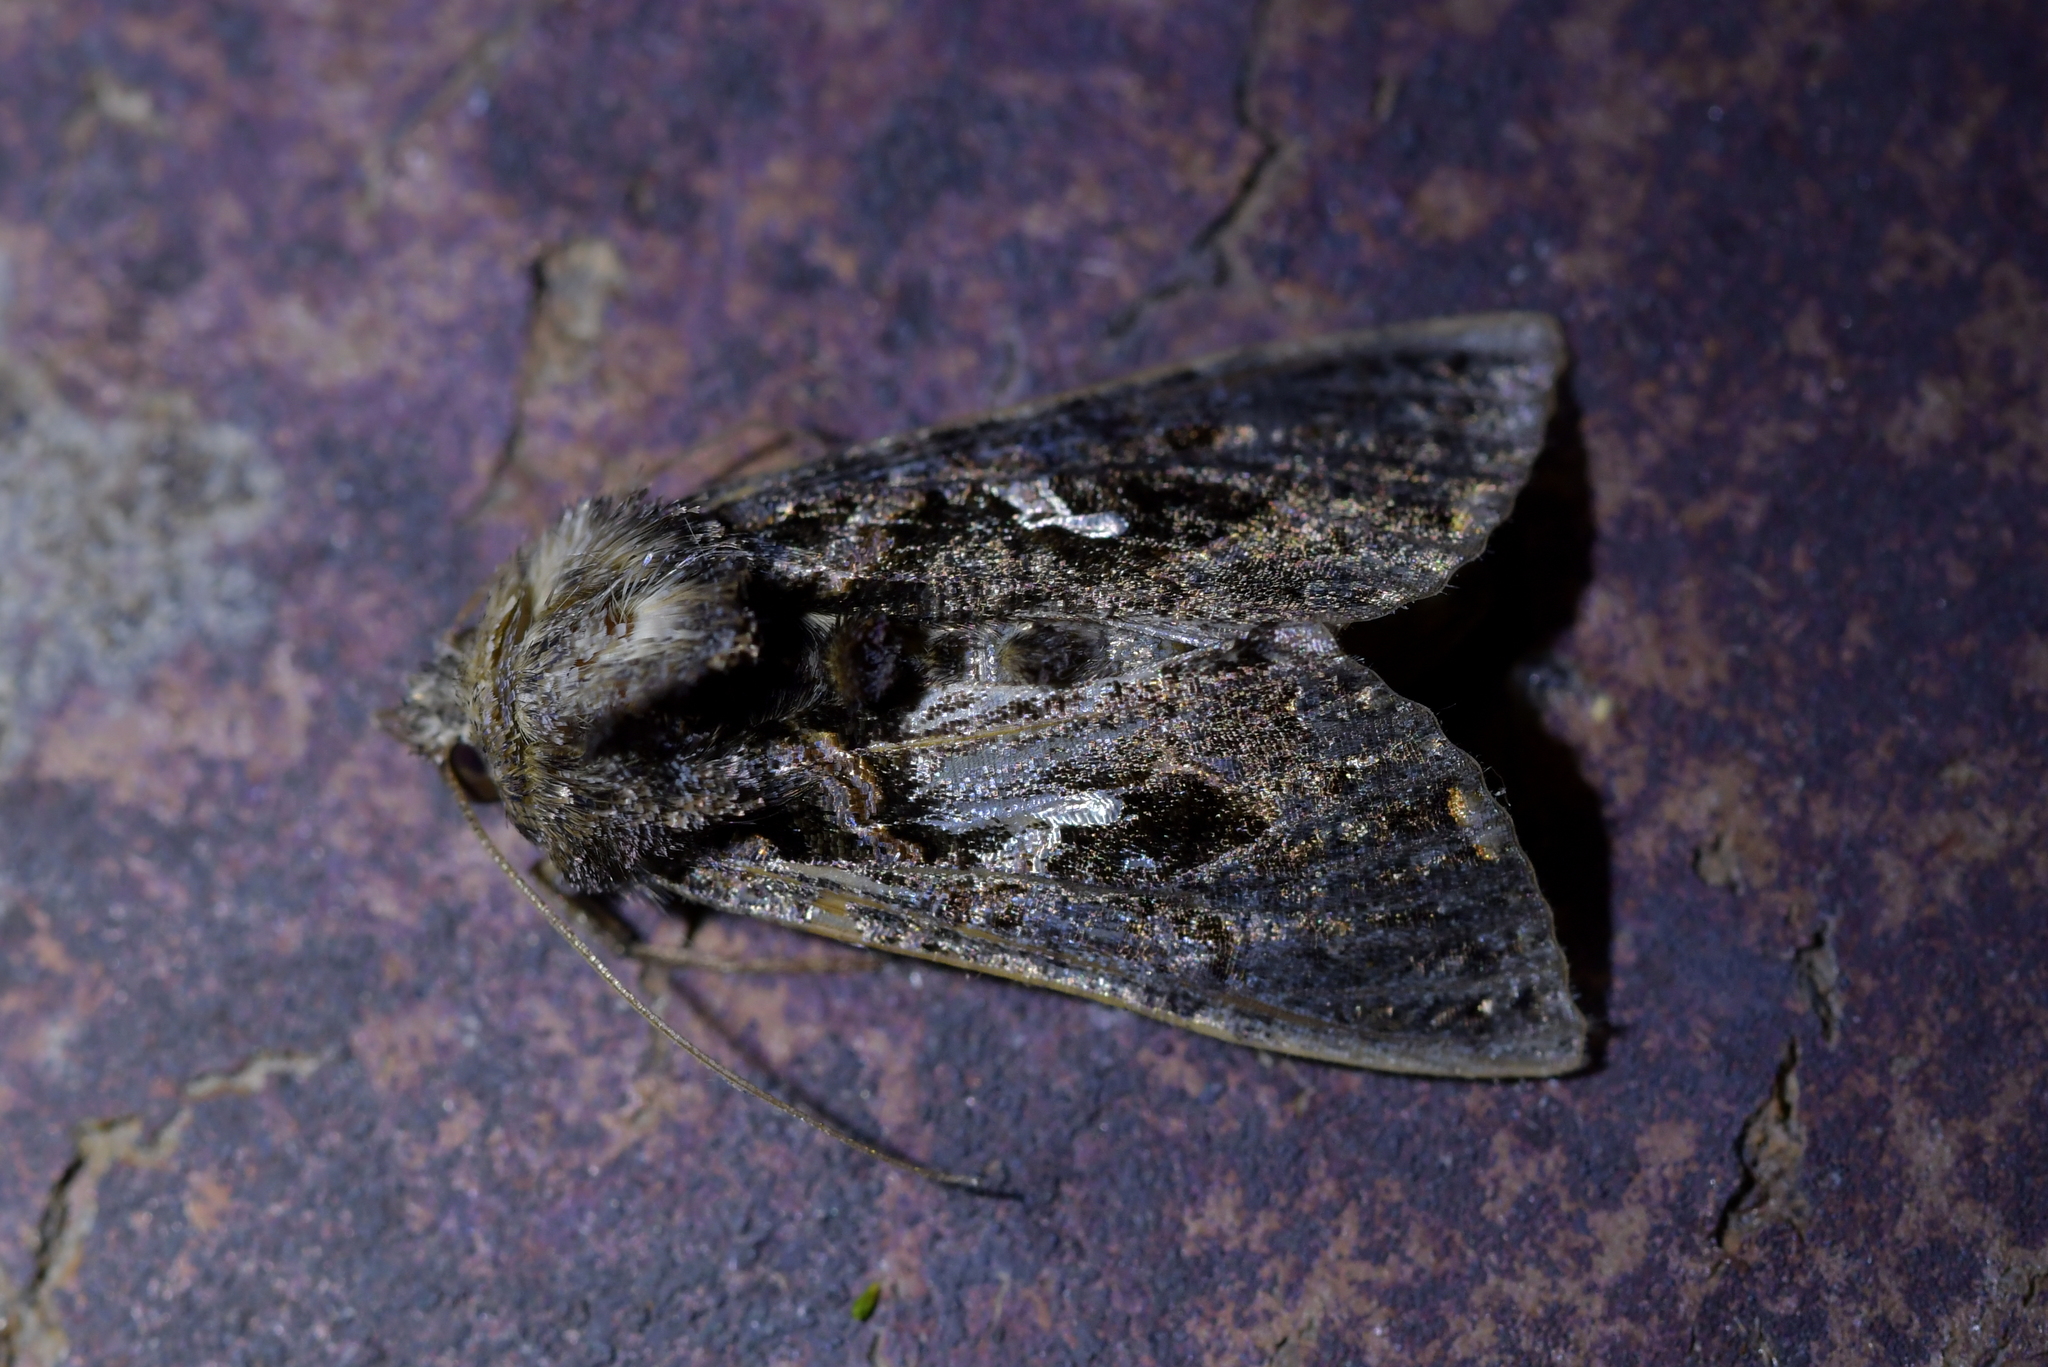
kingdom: Animalia
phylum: Arthropoda
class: Insecta
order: Lepidoptera
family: Noctuidae
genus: Ctenoplusia
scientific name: Ctenoplusia limbirena
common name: Scar bank gem
